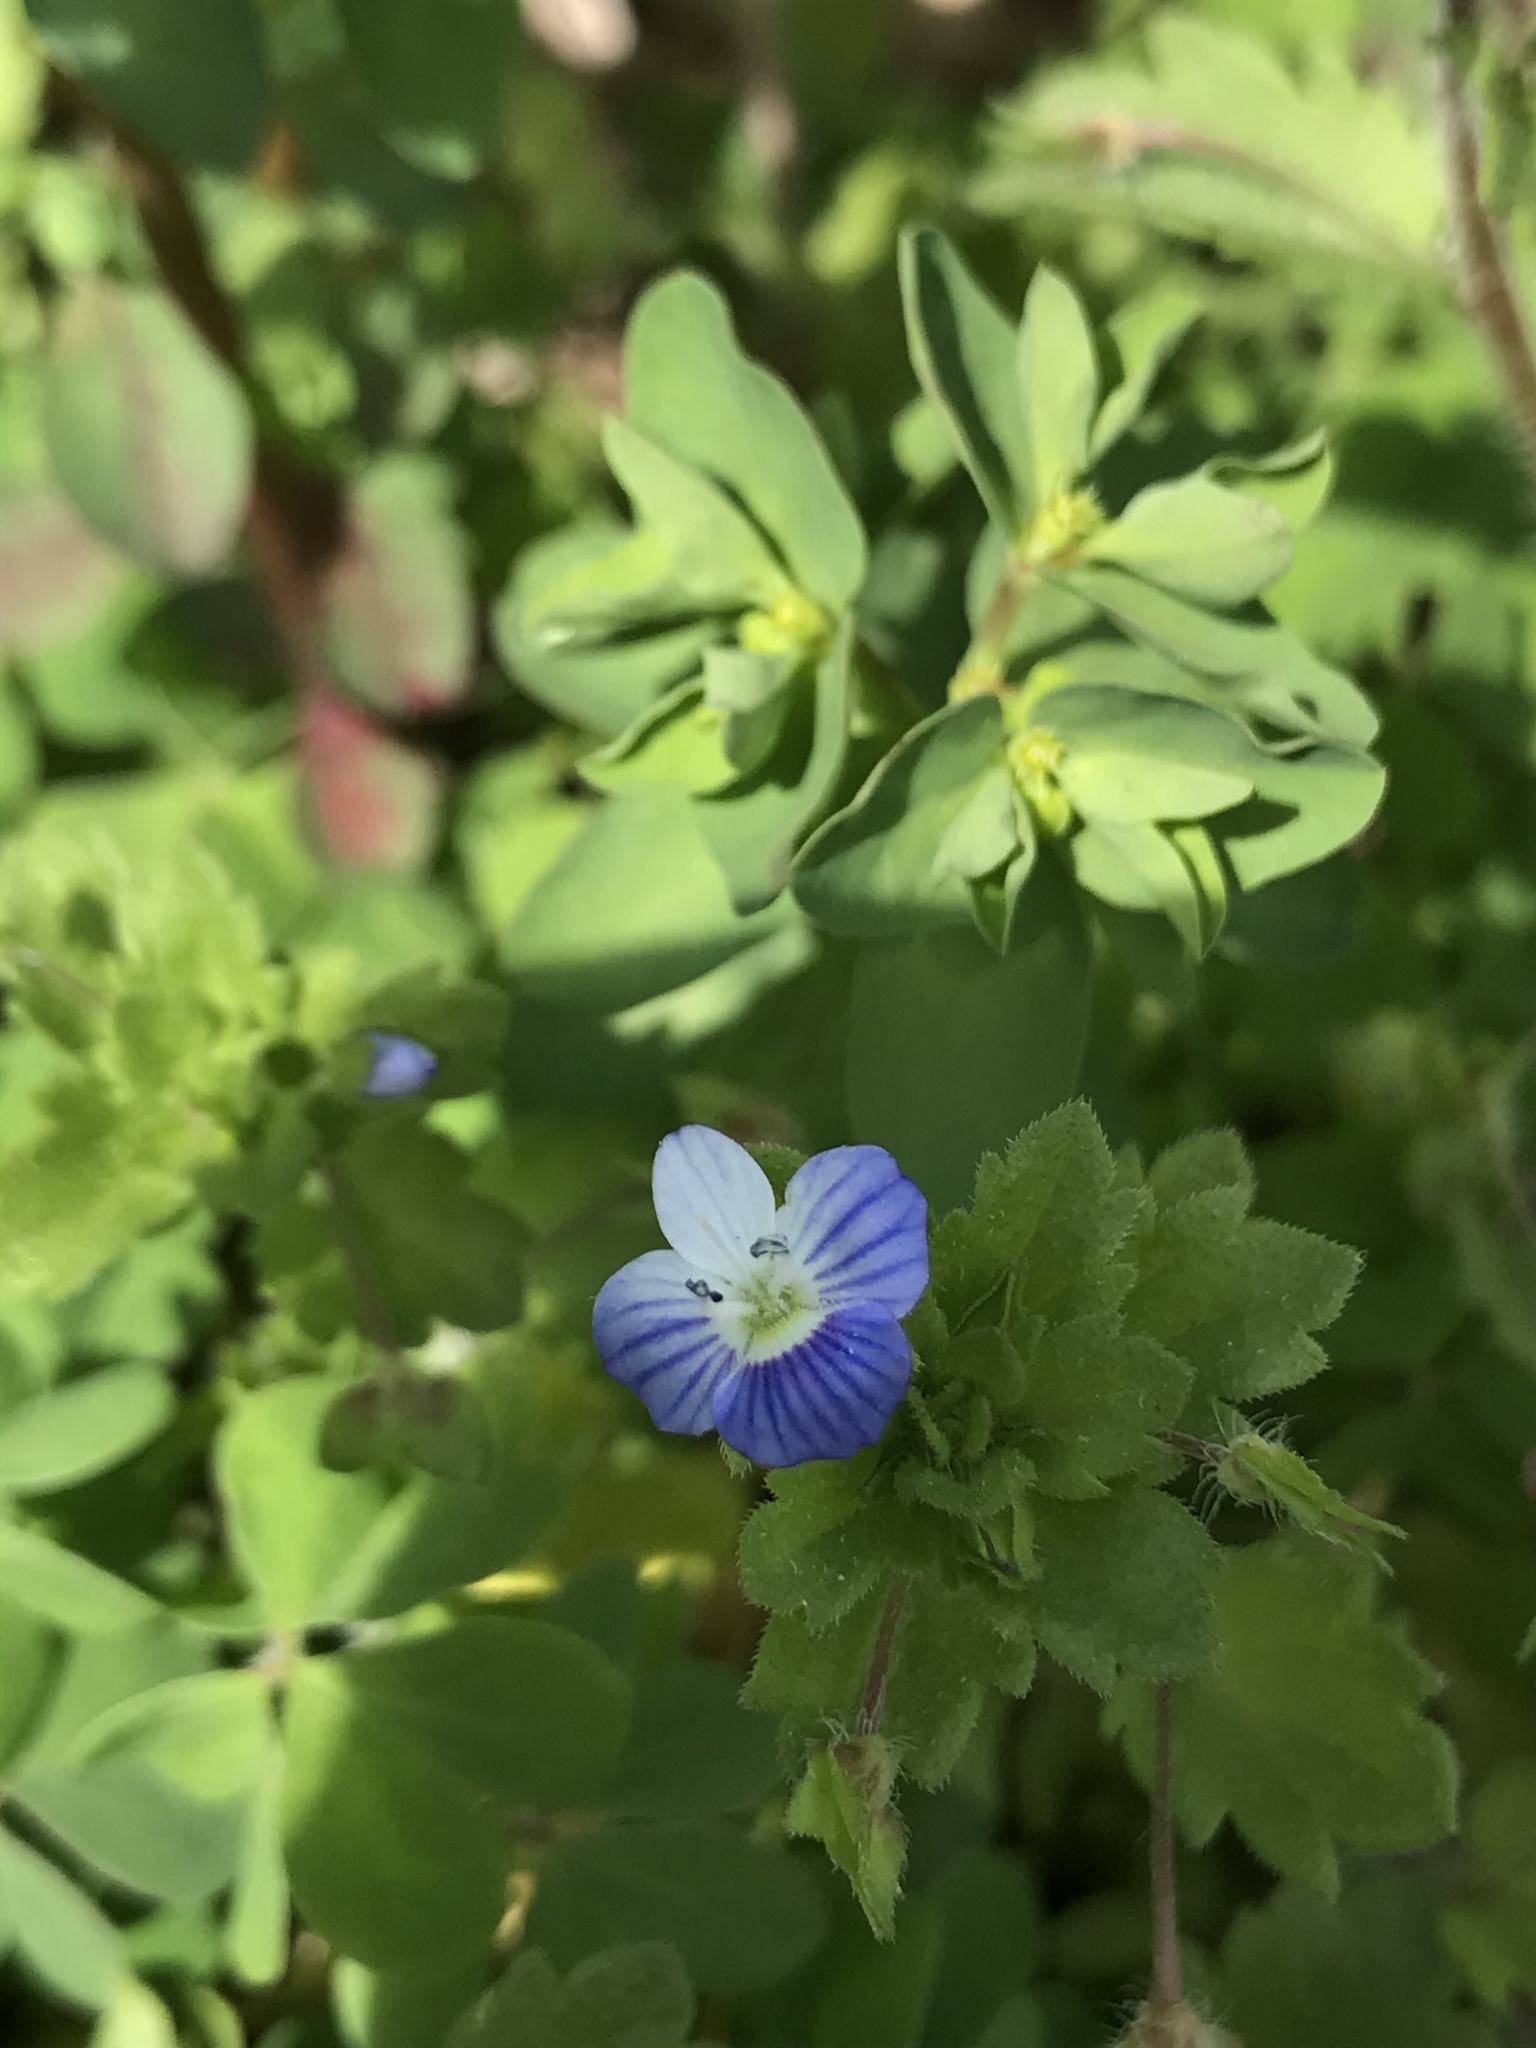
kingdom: Plantae
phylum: Tracheophyta
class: Magnoliopsida
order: Lamiales
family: Plantaginaceae
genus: Veronica
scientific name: Veronica persica
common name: Common field-speedwell
